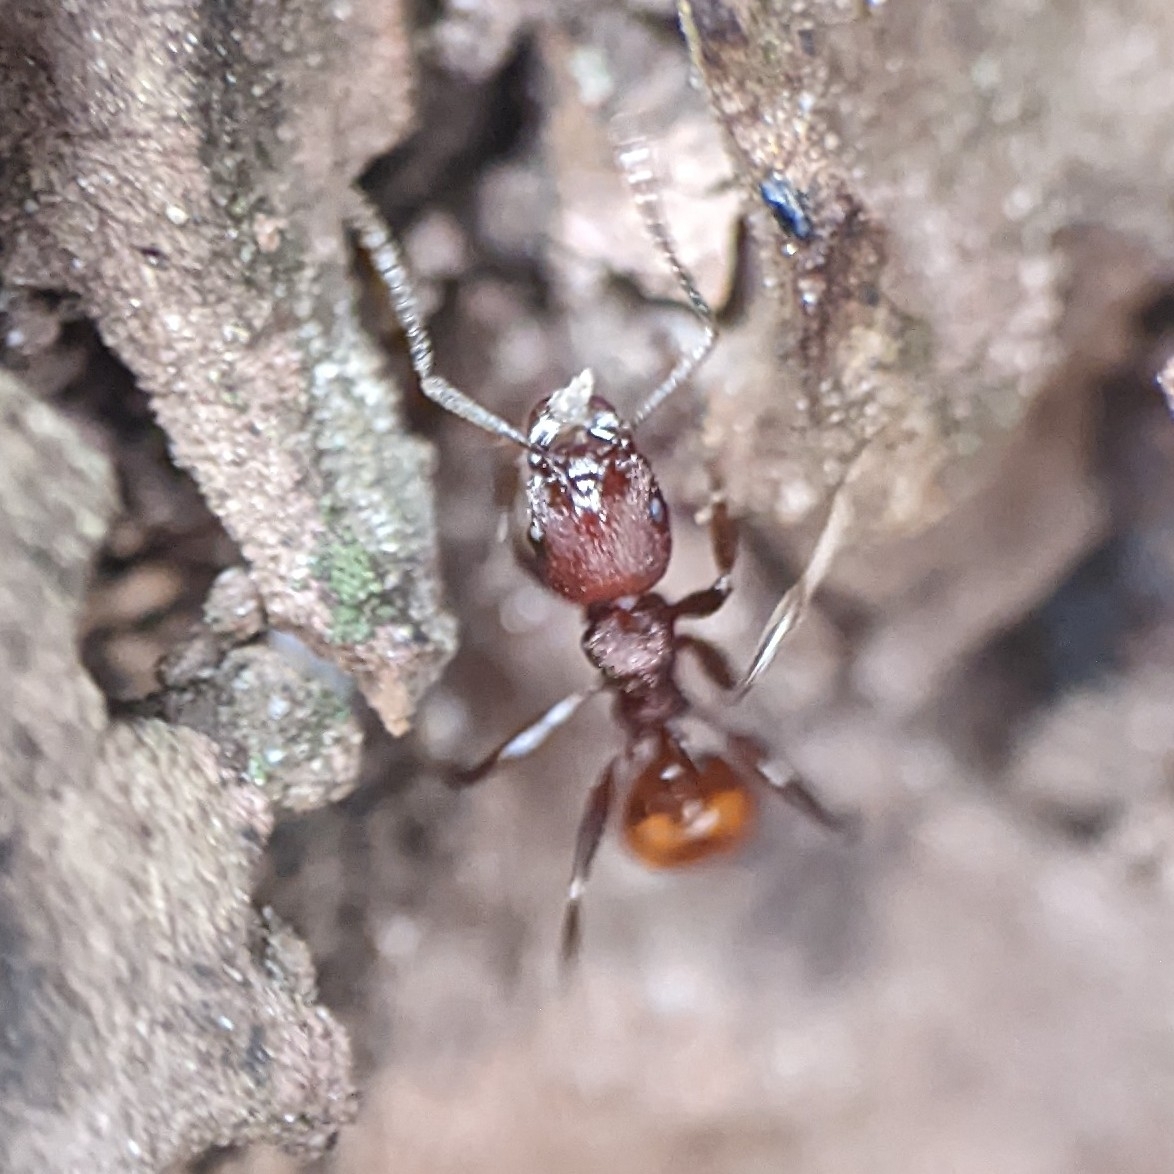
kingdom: Animalia
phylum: Arthropoda
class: Insecta
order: Hymenoptera
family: Formicidae
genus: Aphaenogaster
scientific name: Aphaenogaster tennesseensis
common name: Tennessee thread-waisted ant
